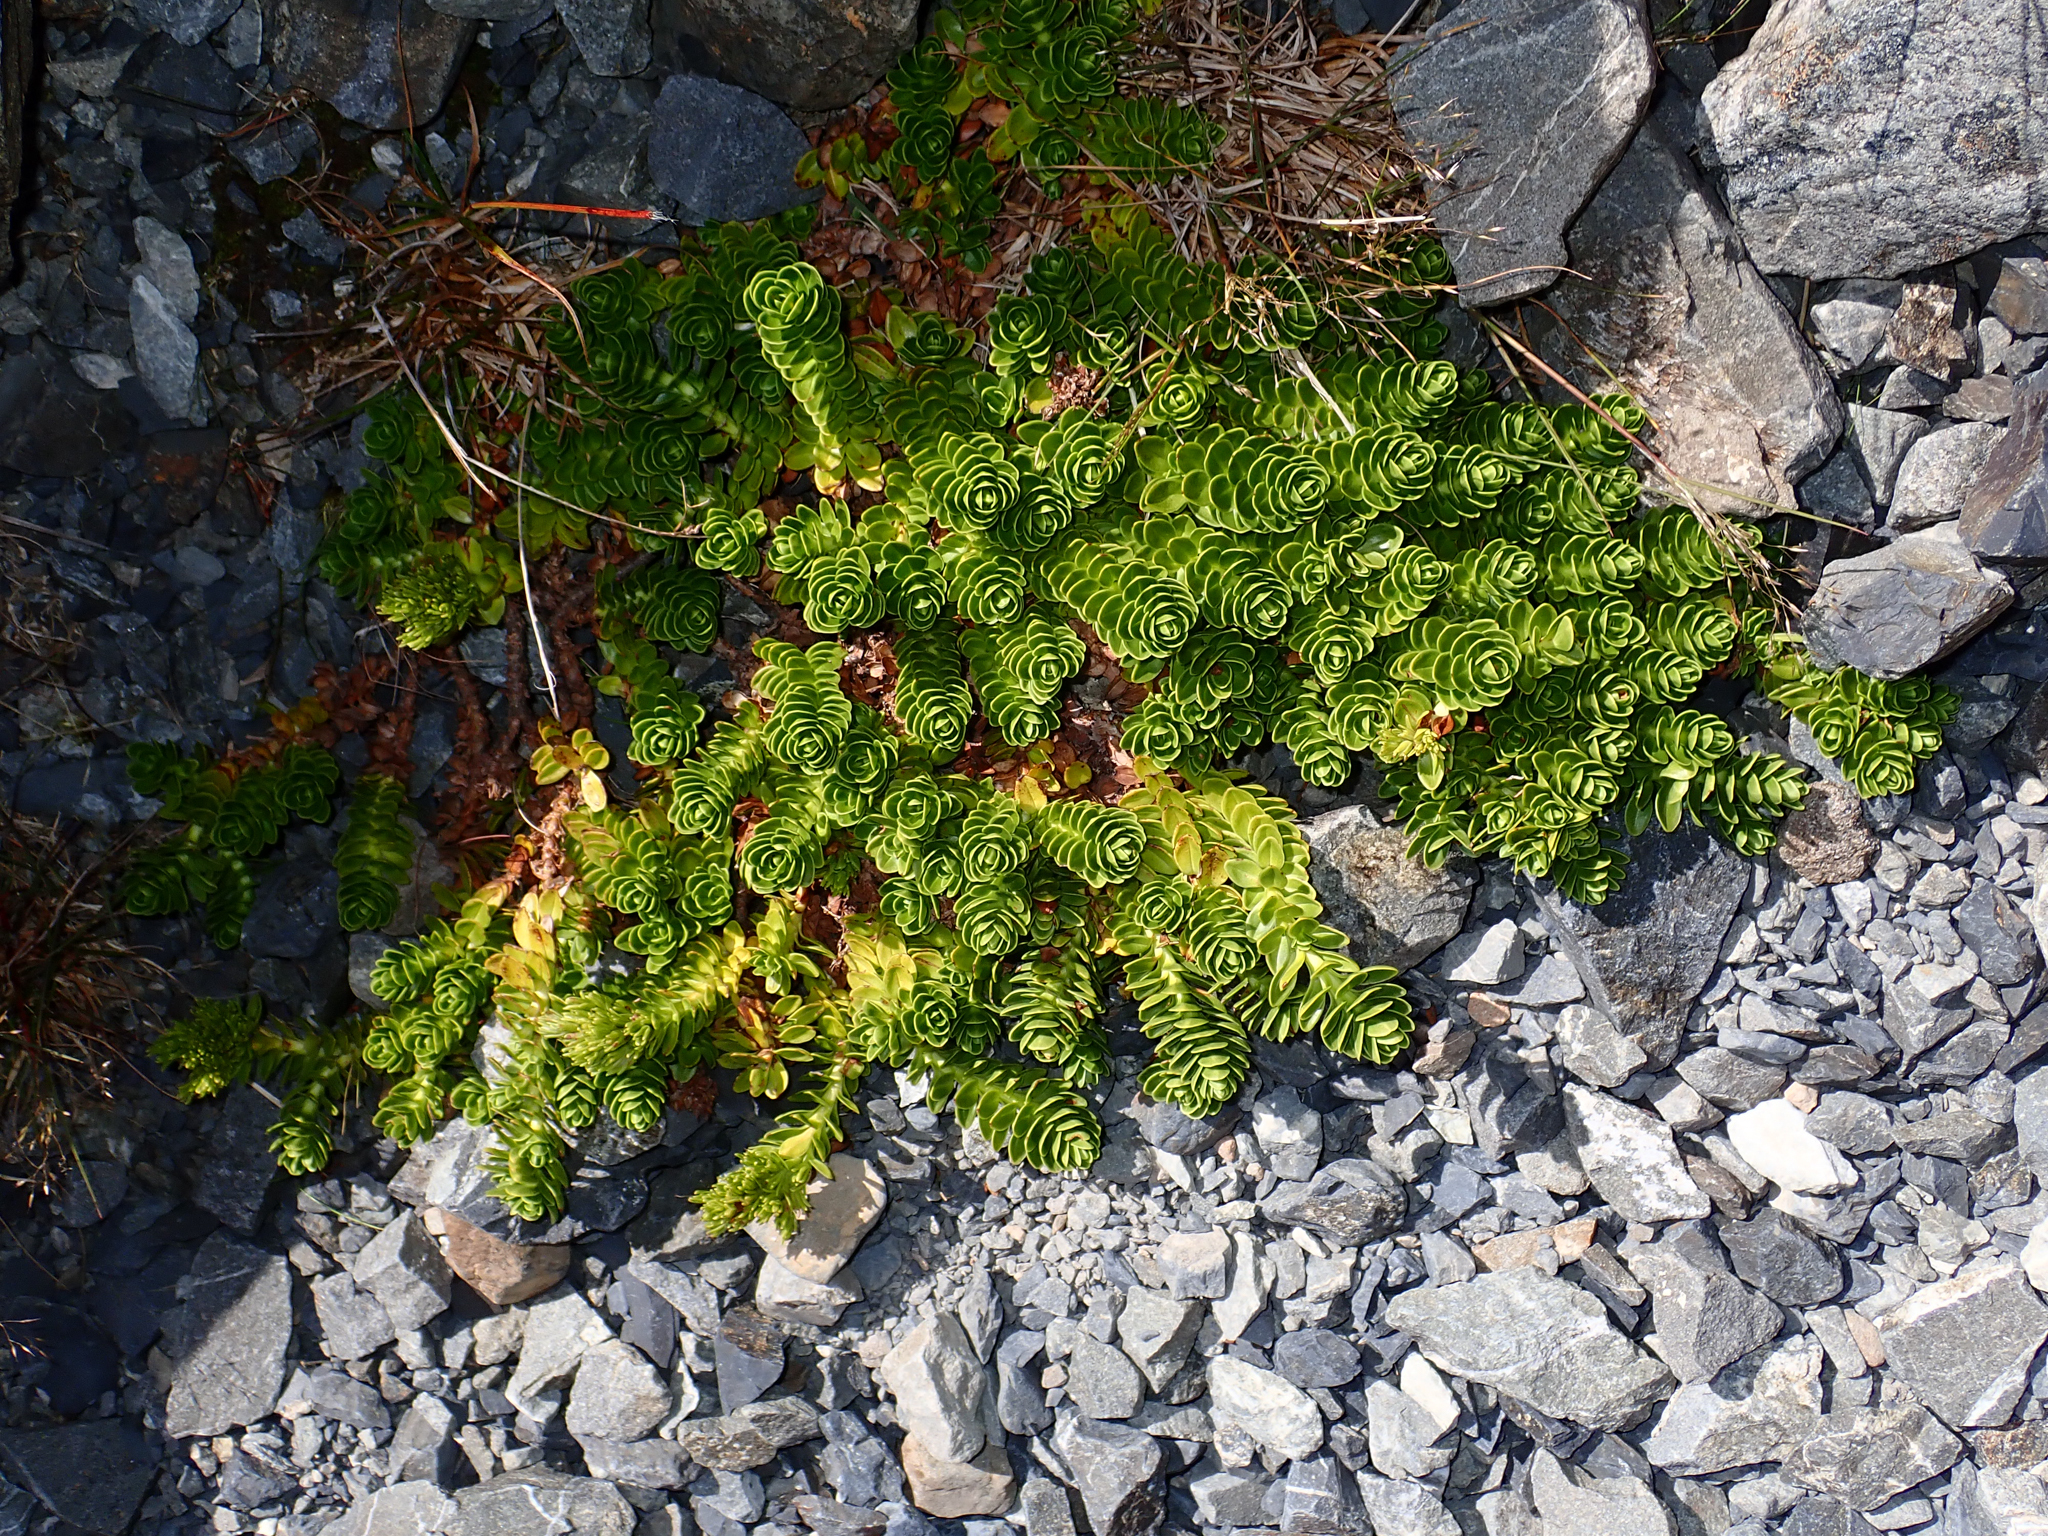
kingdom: Plantae
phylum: Tracheophyta
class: Magnoliopsida
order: Lamiales
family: Plantaginaceae
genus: Veronica
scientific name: Veronica macrocalyx
